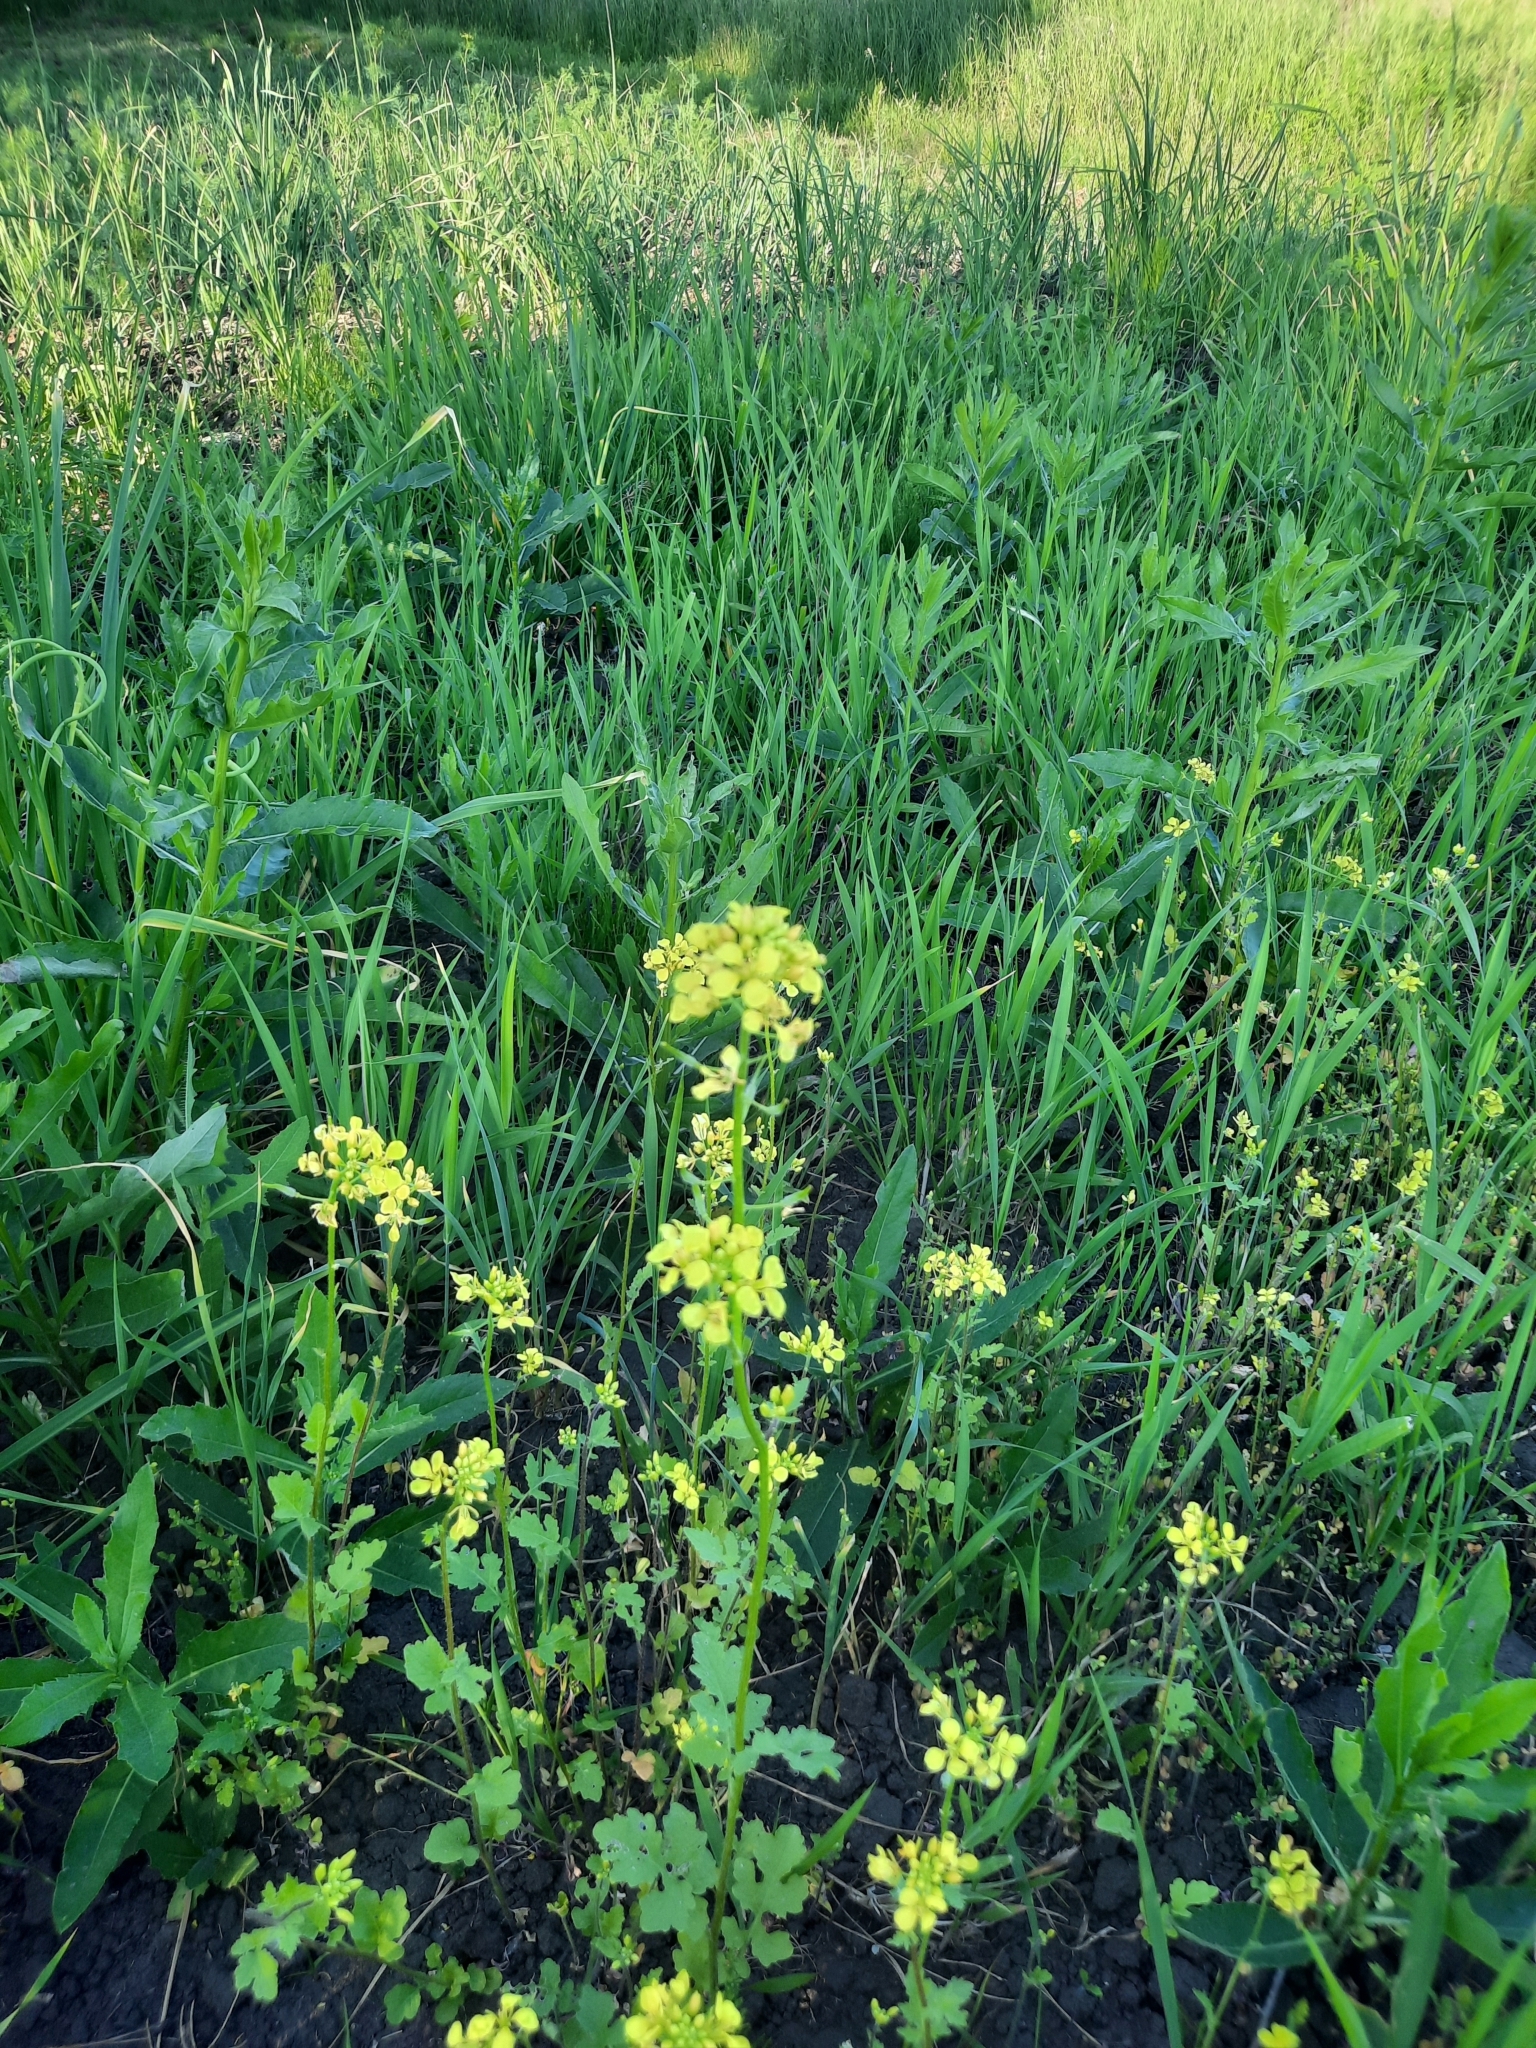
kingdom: Plantae
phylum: Tracheophyta
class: Magnoliopsida
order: Brassicales
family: Brassicaceae
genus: Sinapis
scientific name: Sinapis alba
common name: White mustard
